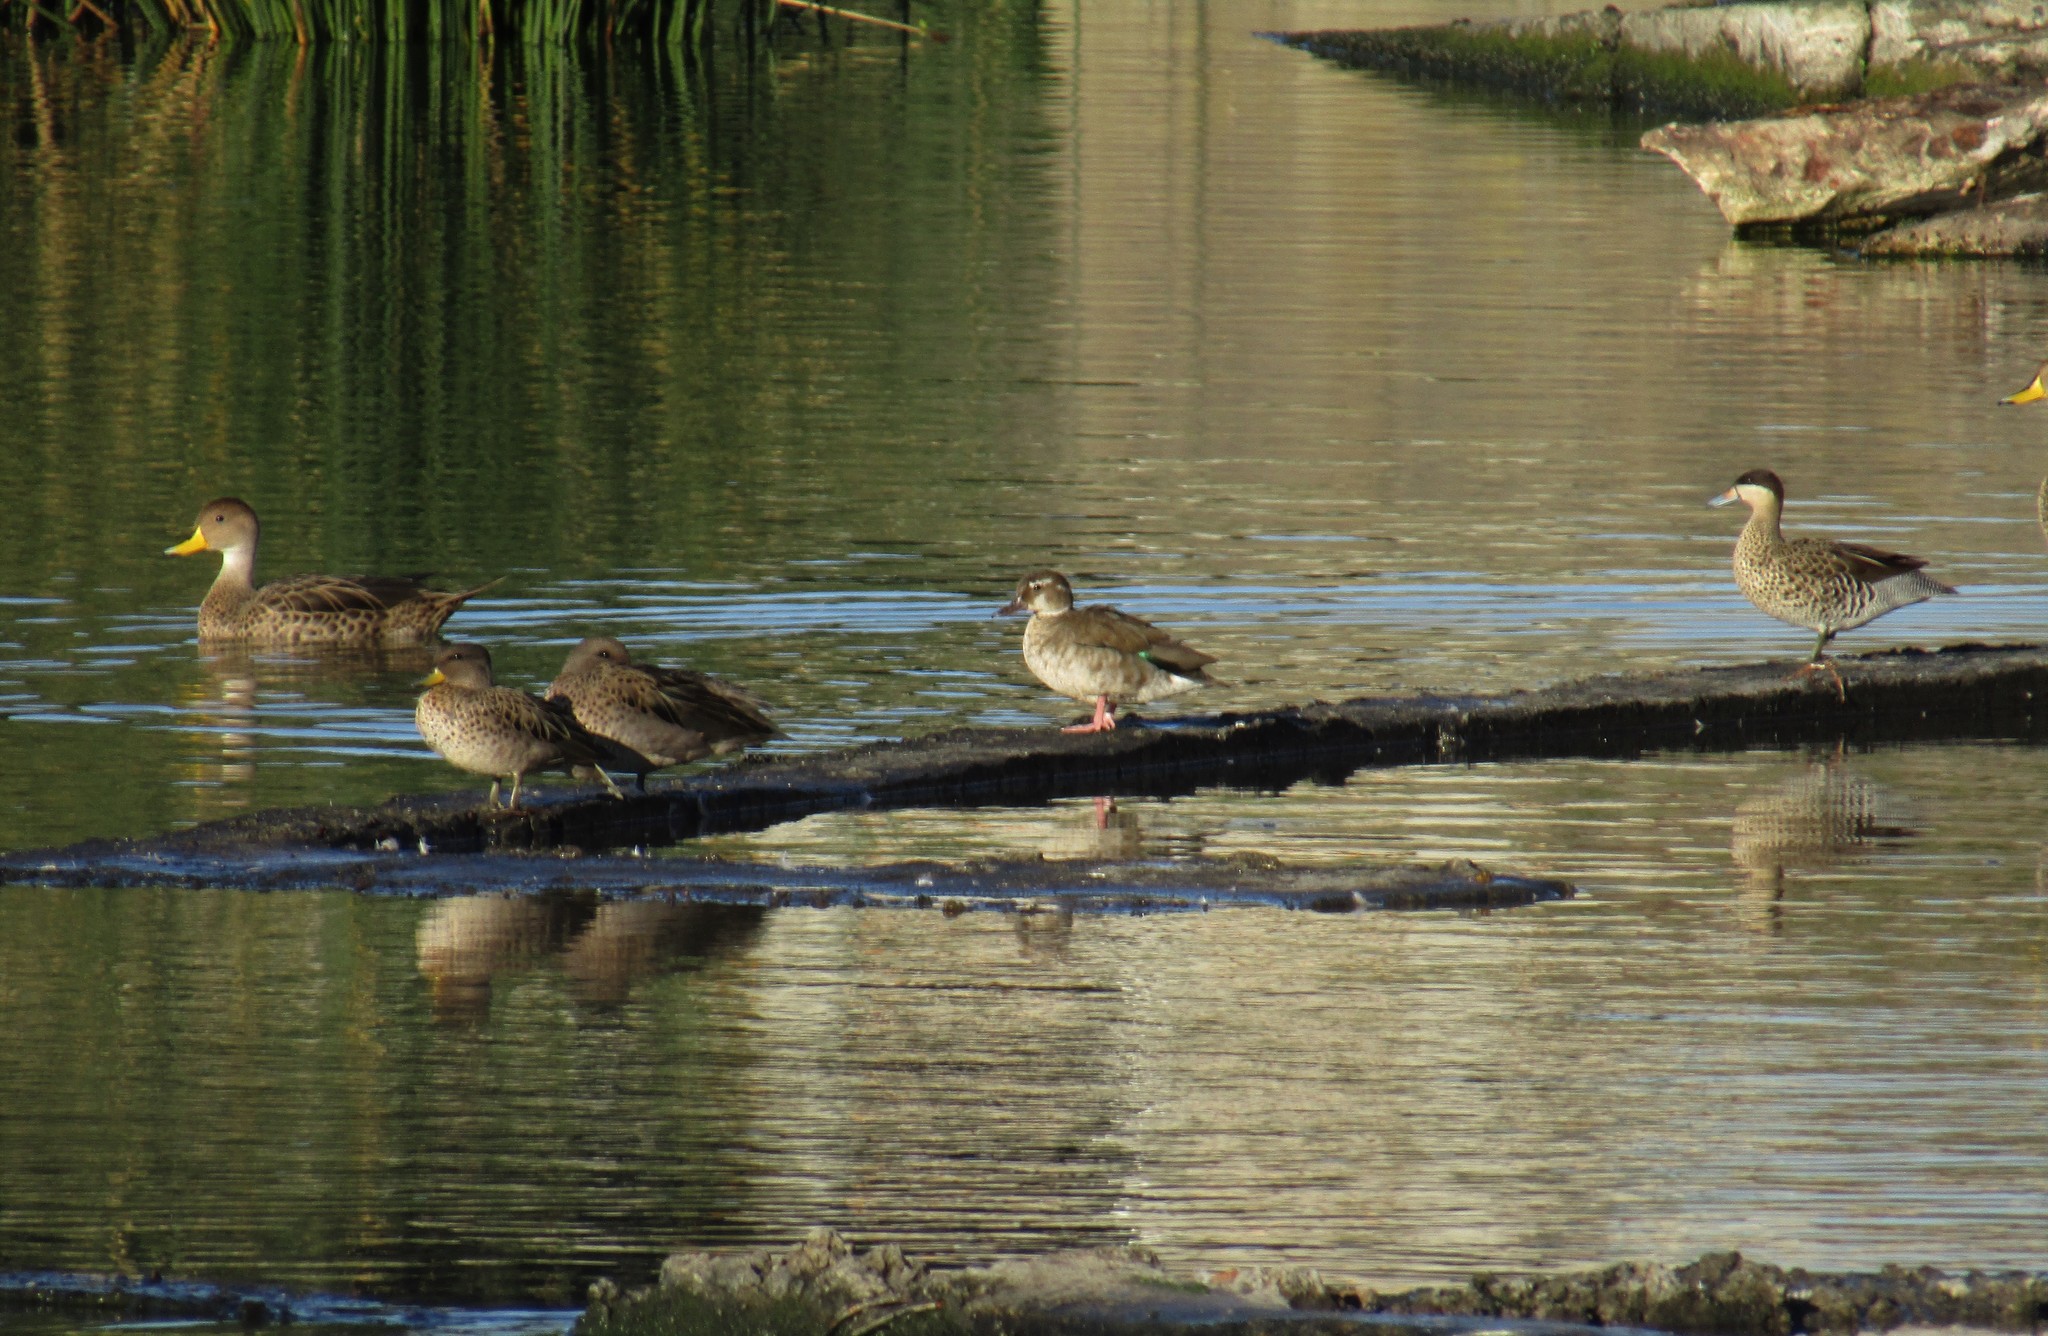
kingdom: Animalia
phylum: Chordata
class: Aves
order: Anseriformes
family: Anatidae
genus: Amazonetta
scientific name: Amazonetta brasiliensis
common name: Brazilian teal
